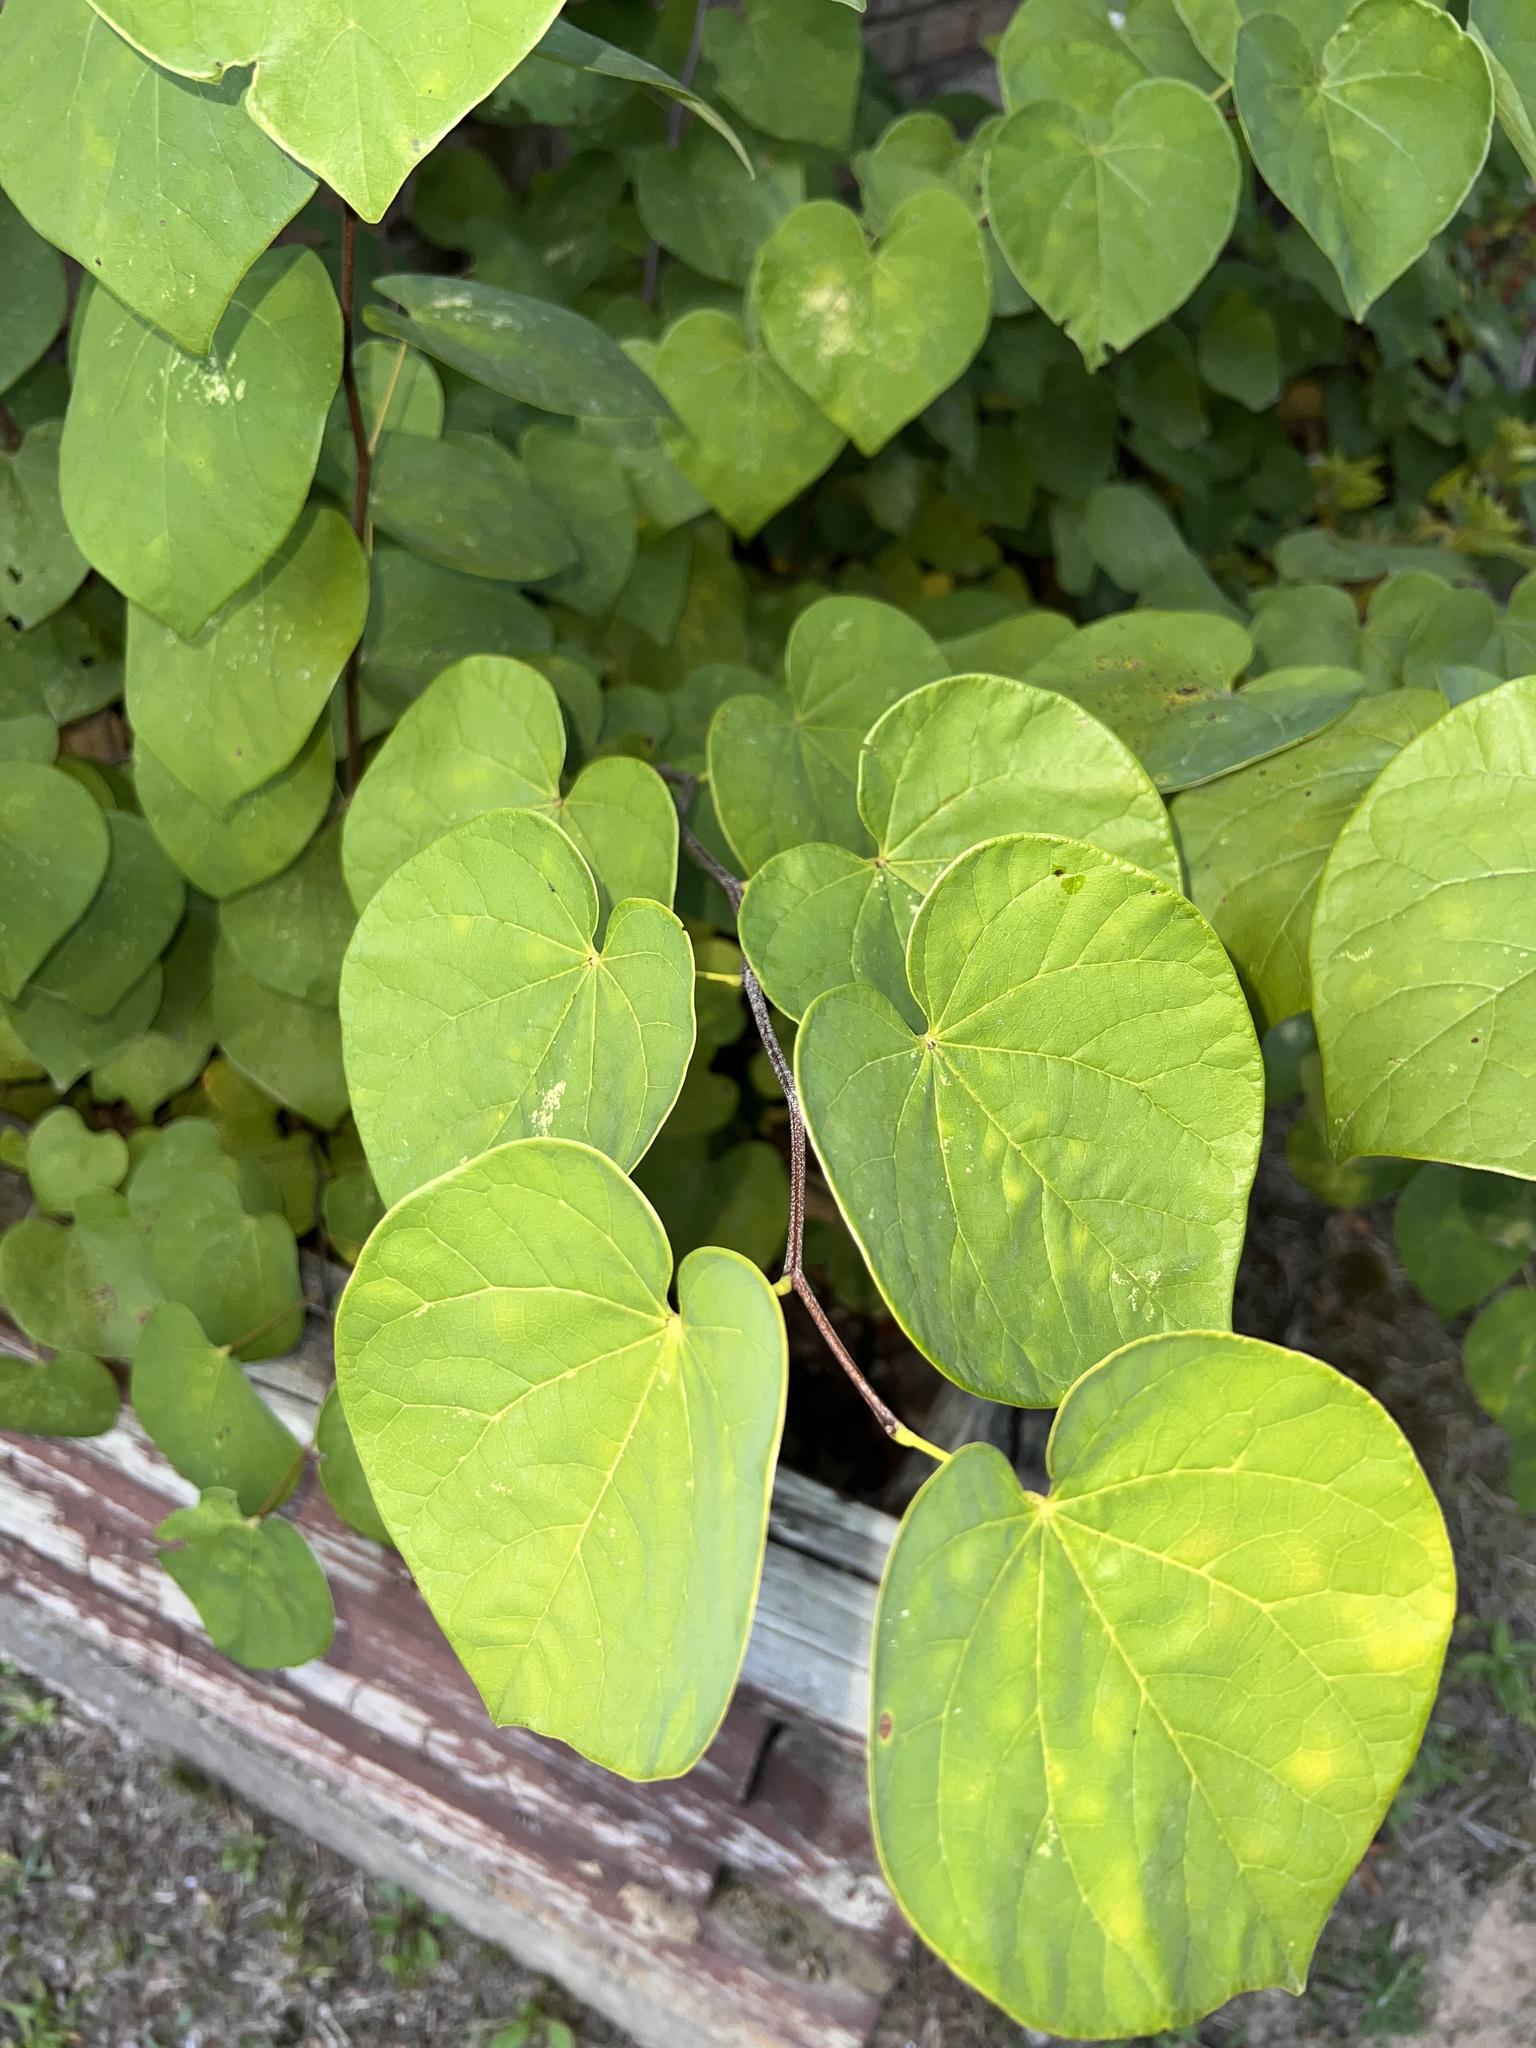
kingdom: Plantae
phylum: Tracheophyta
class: Magnoliopsida
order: Fabales
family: Fabaceae
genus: Cercis
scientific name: Cercis canadensis
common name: Eastern redbud
